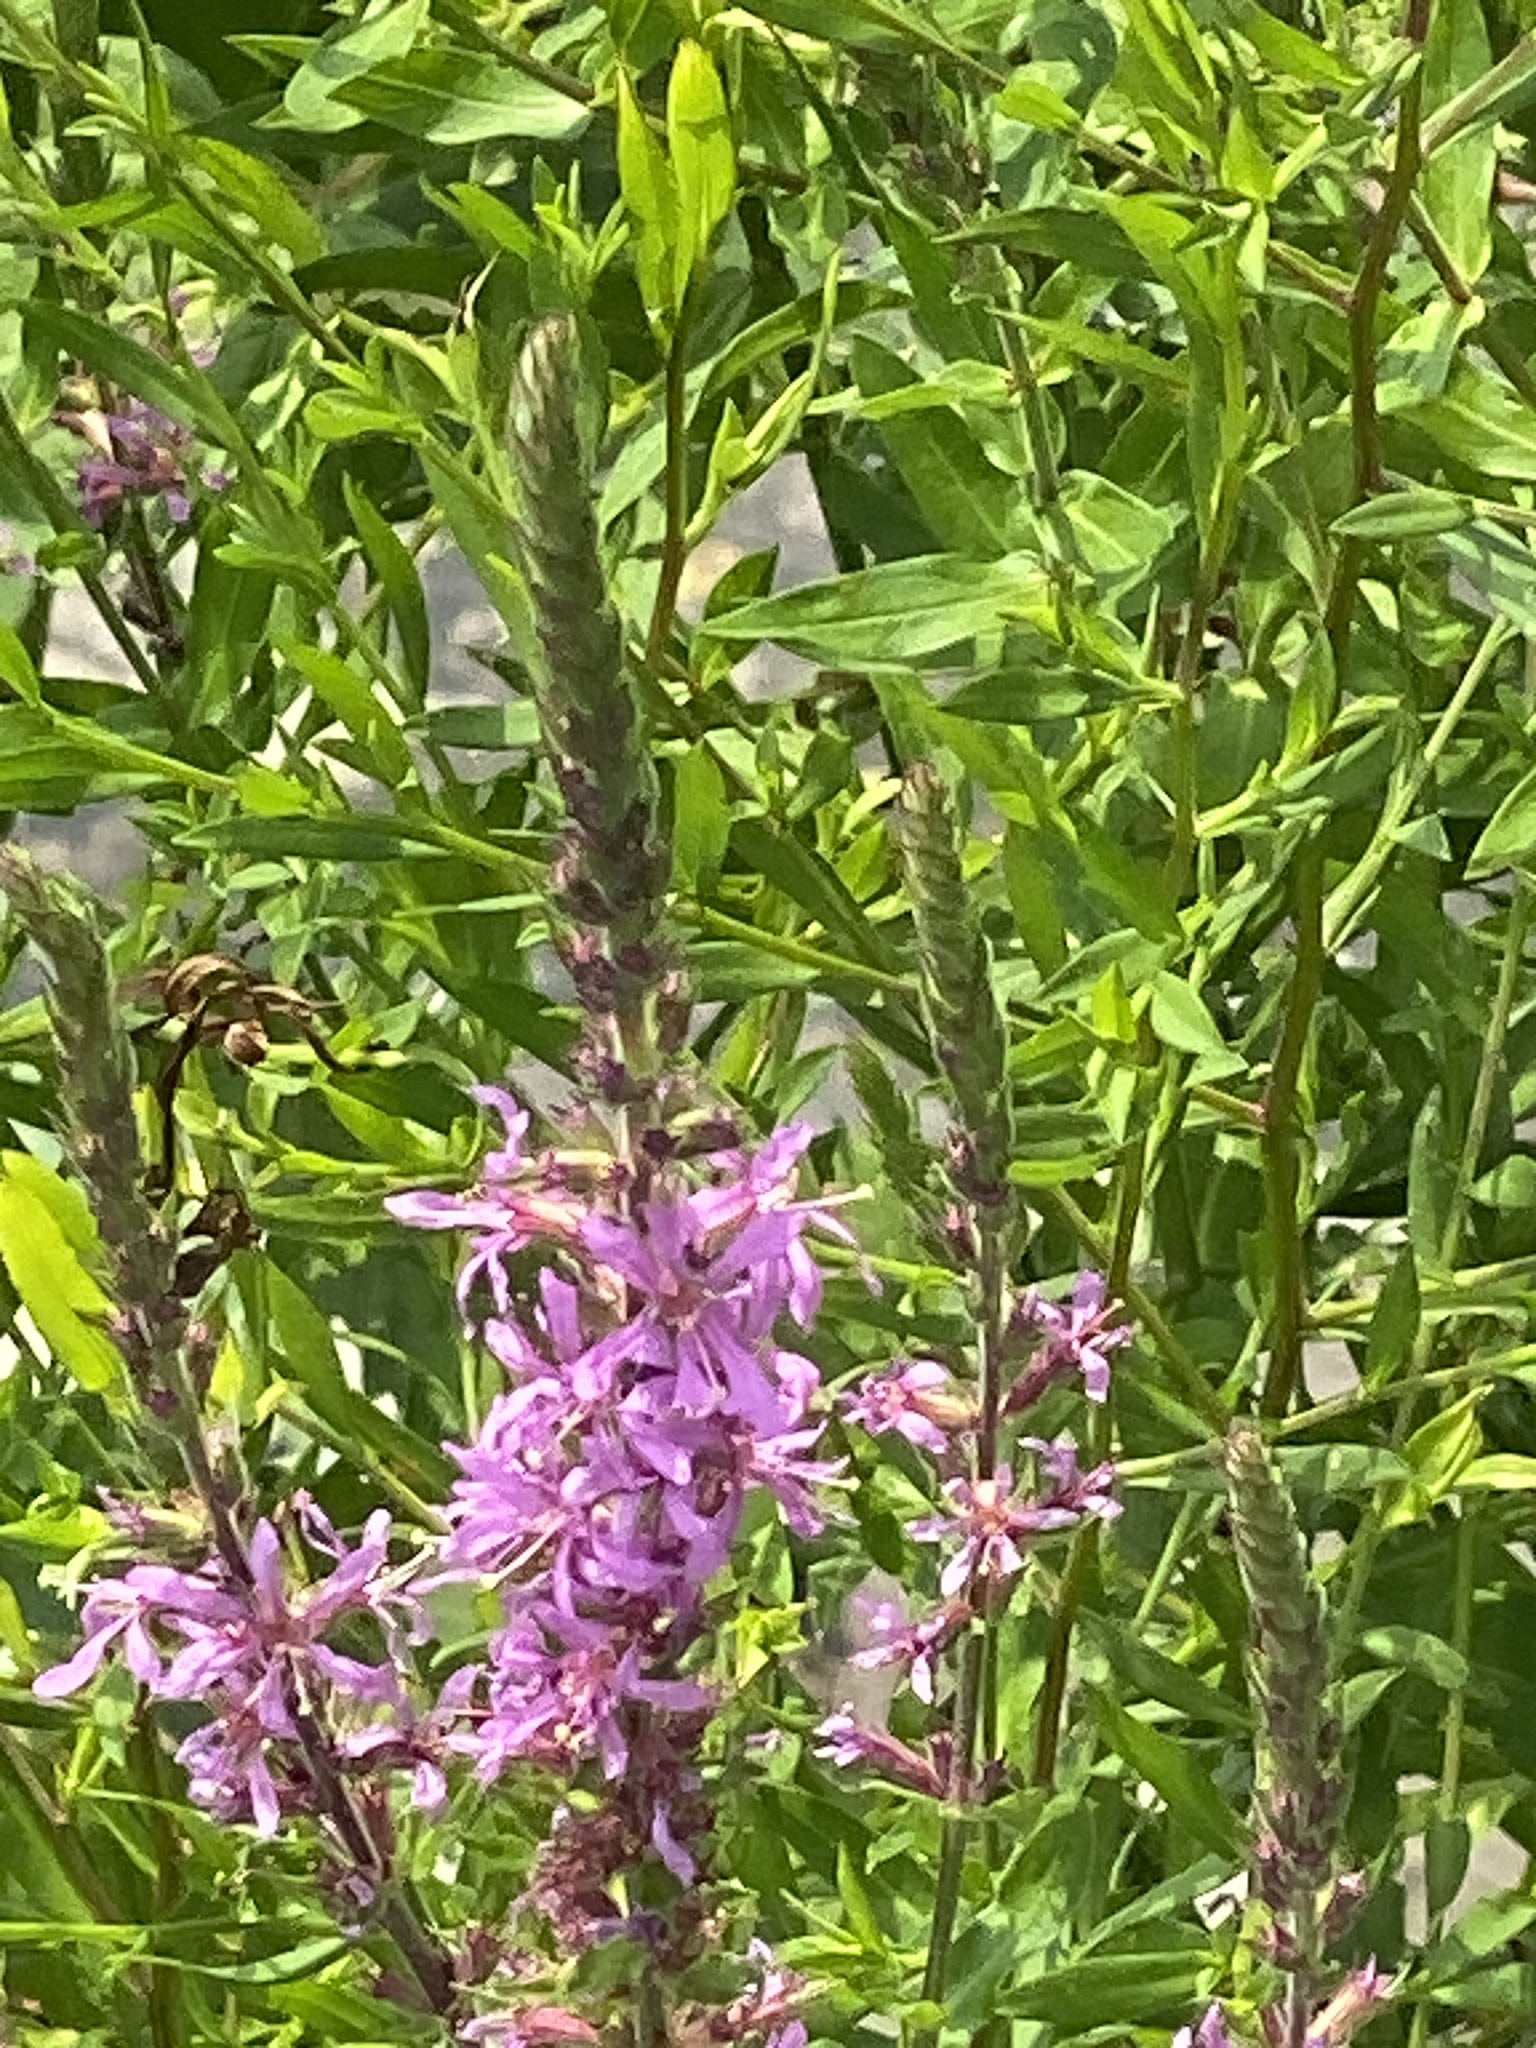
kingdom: Plantae
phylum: Tracheophyta
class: Magnoliopsida
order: Myrtales
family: Lythraceae
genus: Lythrum
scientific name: Lythrum salicaria
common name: Purple loosestrife
